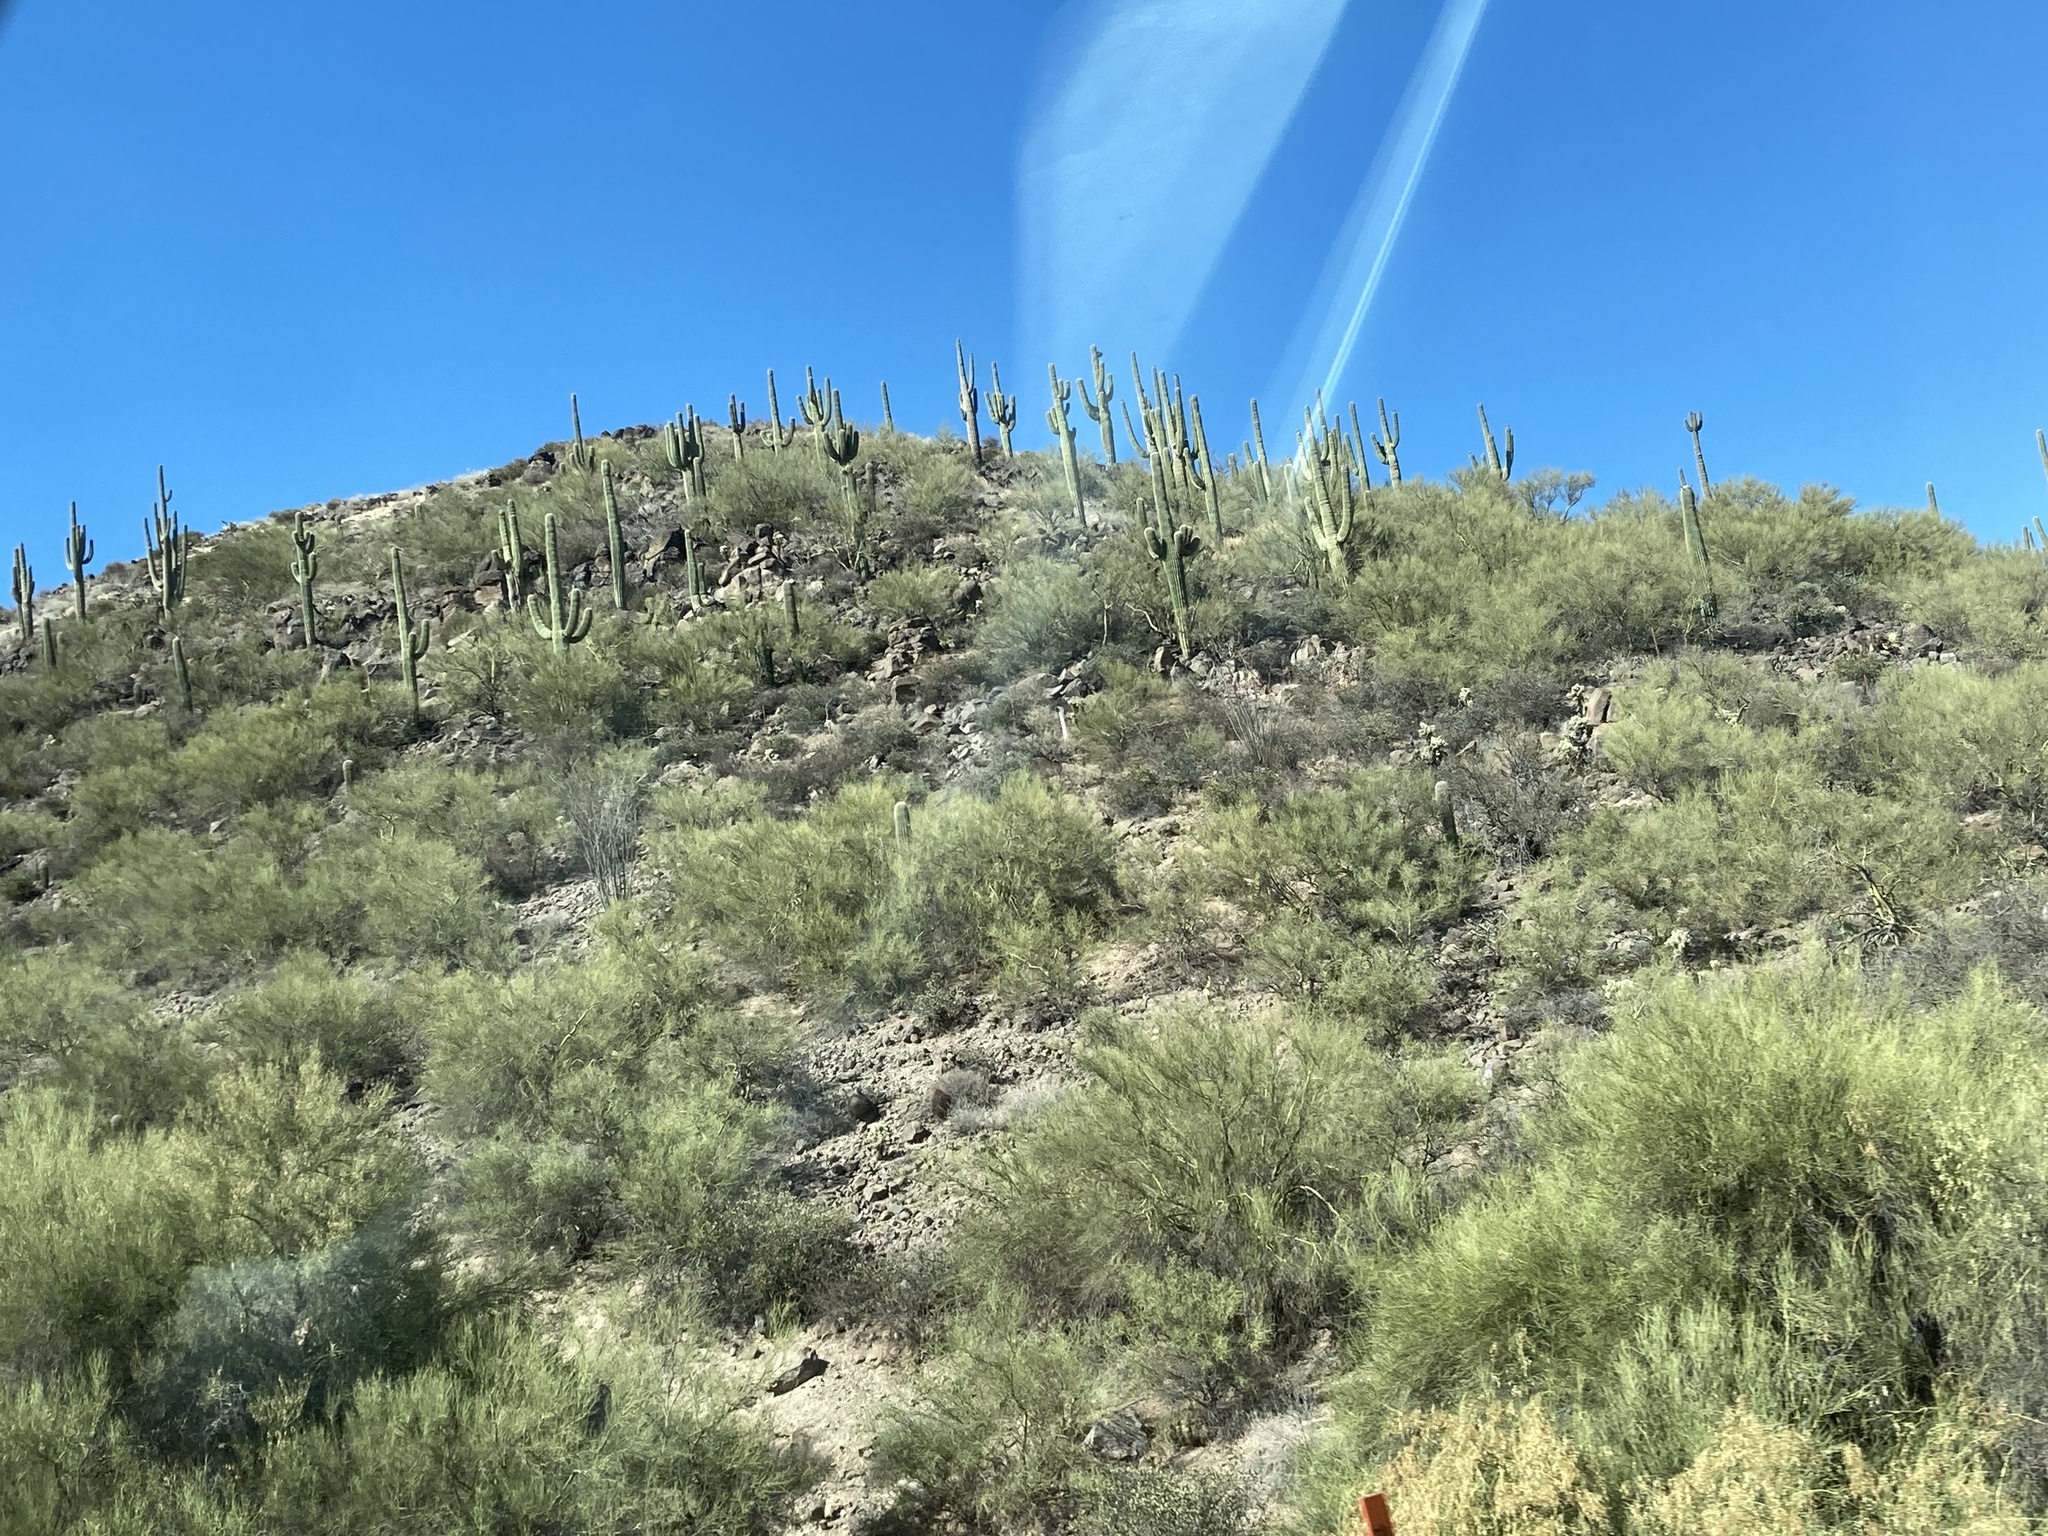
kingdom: Plantae
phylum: Tracheophyta
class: Magnoliopsida
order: Caryophyllales
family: Cactaceae
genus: Carnegiea
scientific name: Carnegiea gigantea
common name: Saguaro
